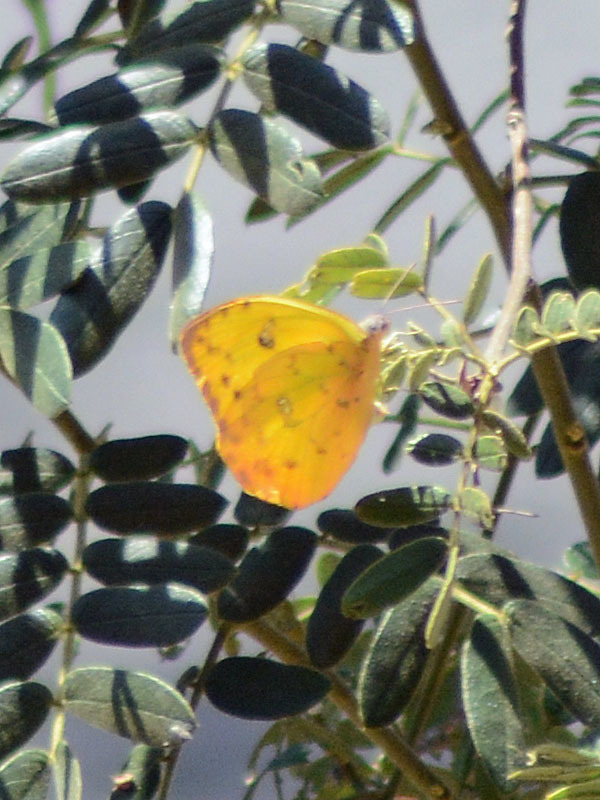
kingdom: Animalia
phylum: Arthropoda
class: Insecta
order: Lepidoptera
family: Pieridae
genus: Phoebis
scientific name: Phoebis philea
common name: Orange-barred giant sulphur
